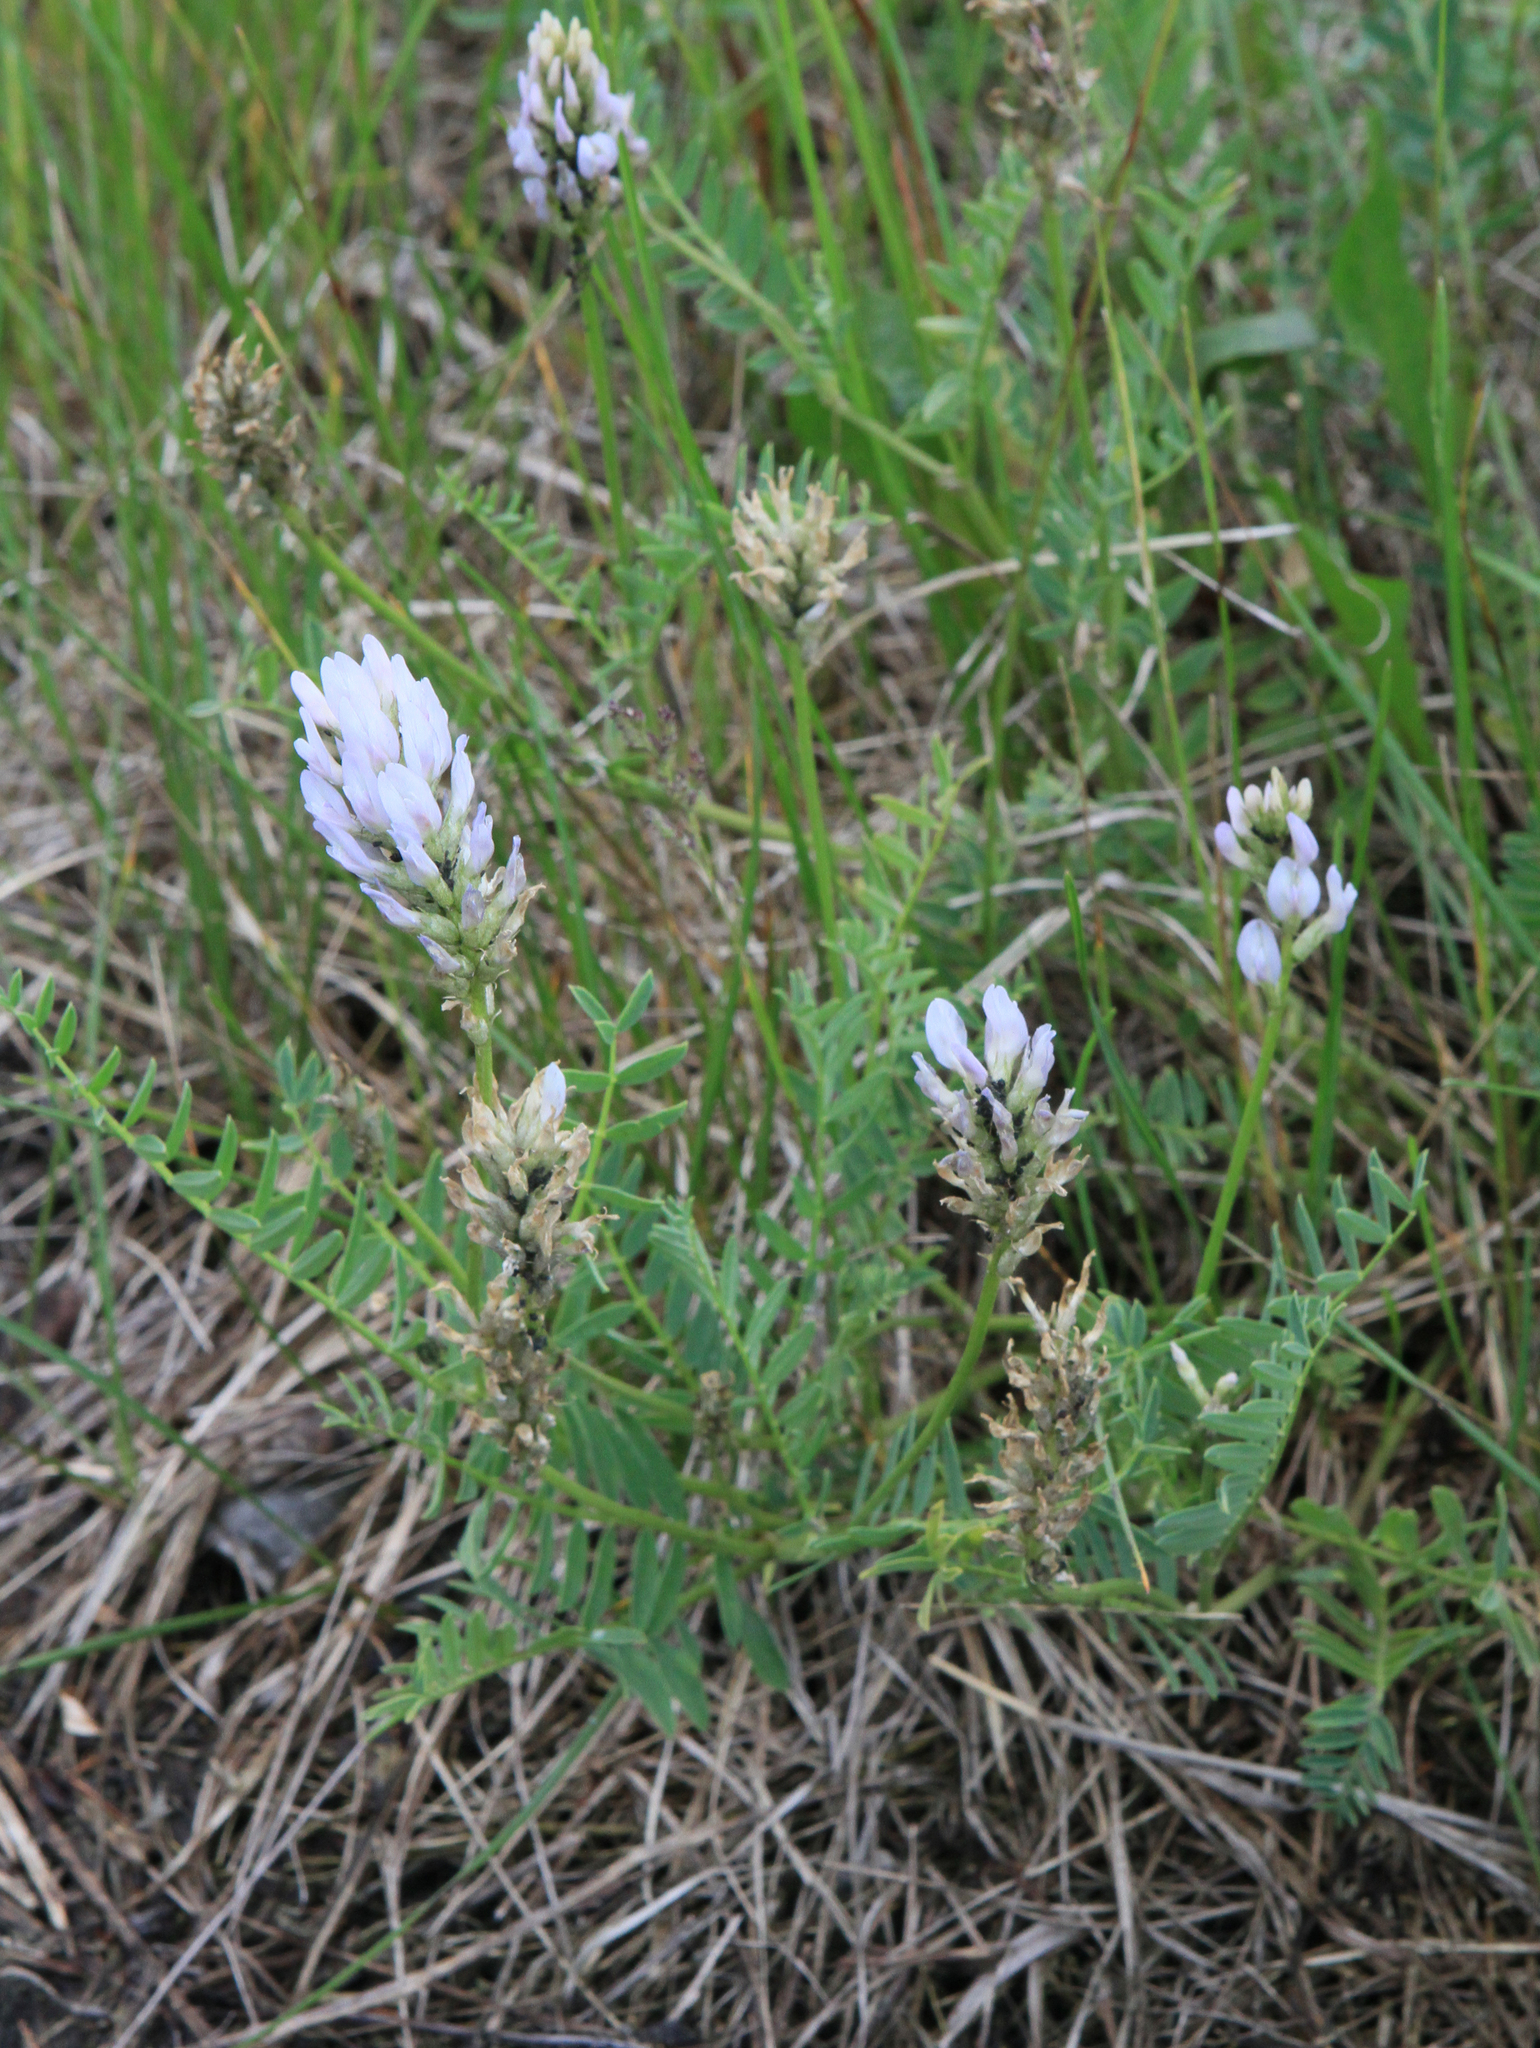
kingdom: Plantae
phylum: Tracheophyta
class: Magnoliopsida
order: Fabales
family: Fabaceae
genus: Astragalus
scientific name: Astragalus laxmannii
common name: Laxmann's milk-vetch
